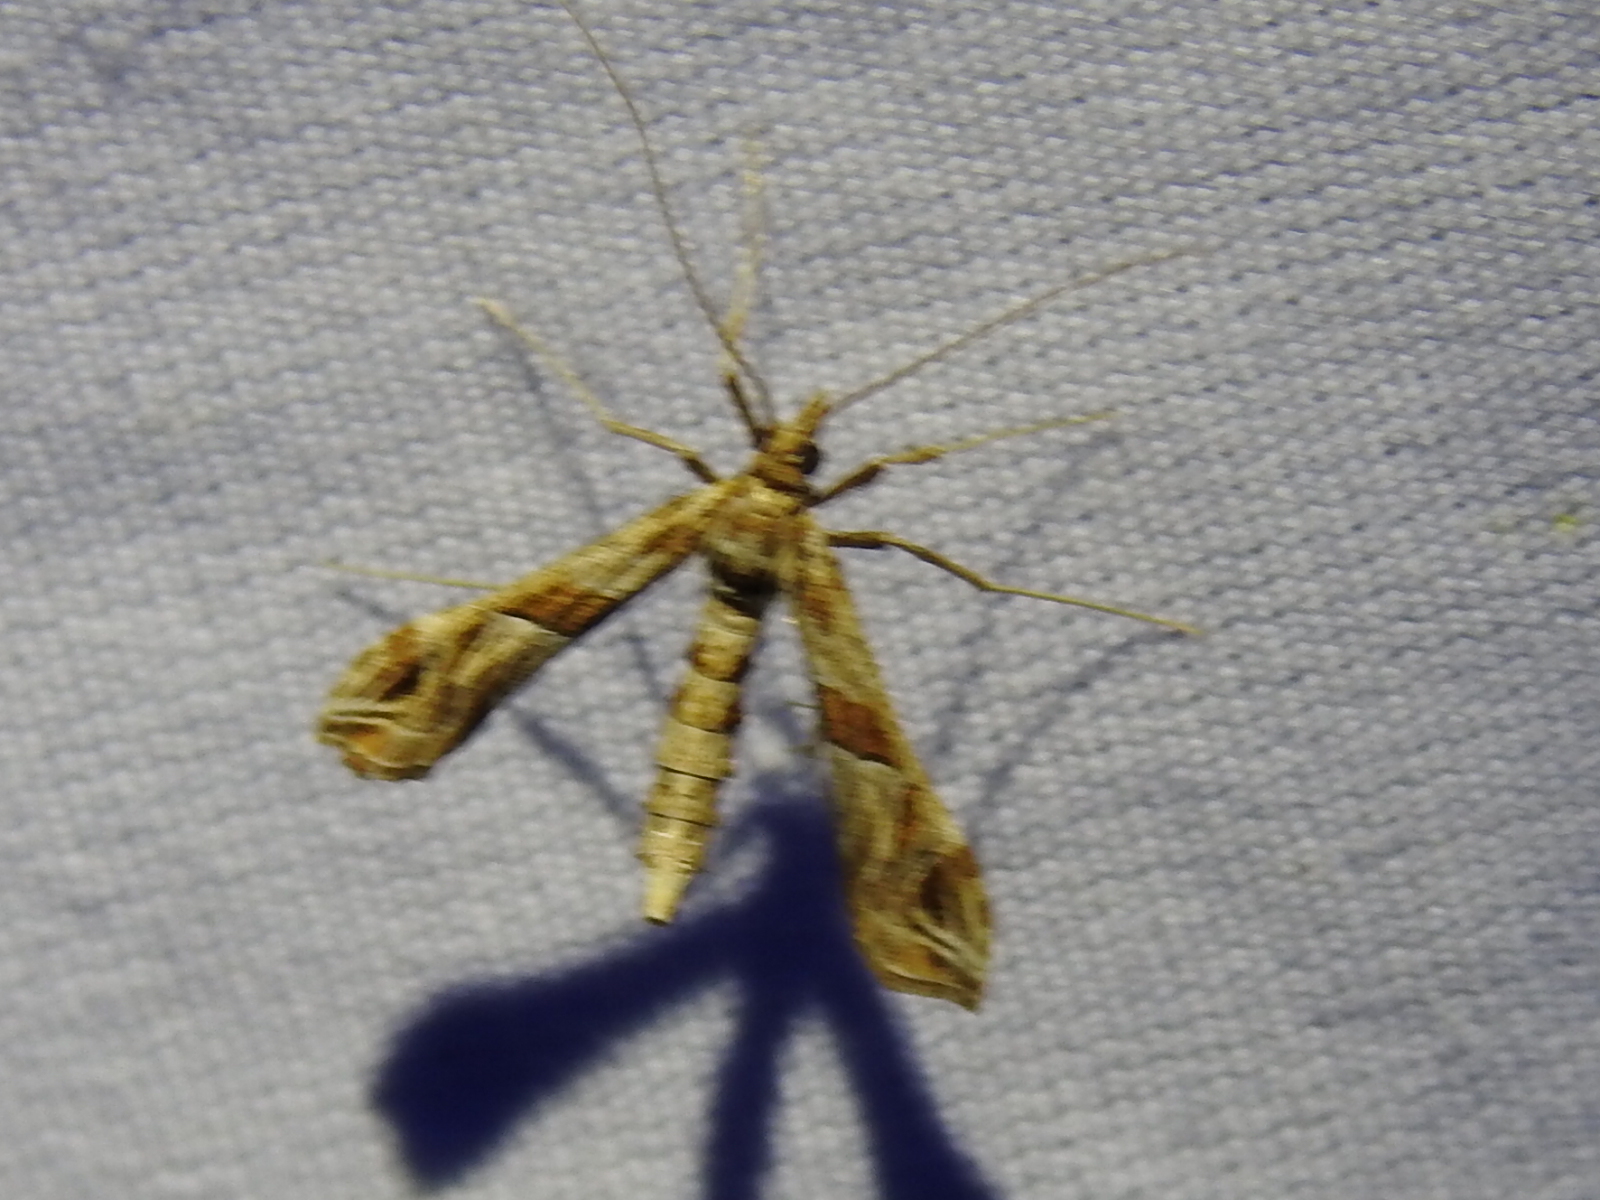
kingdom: Animalia
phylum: Arthropoda
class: Insecta
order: Lepidoptera
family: Crambidae
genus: Lineodes
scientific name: Lineodes interrupta
